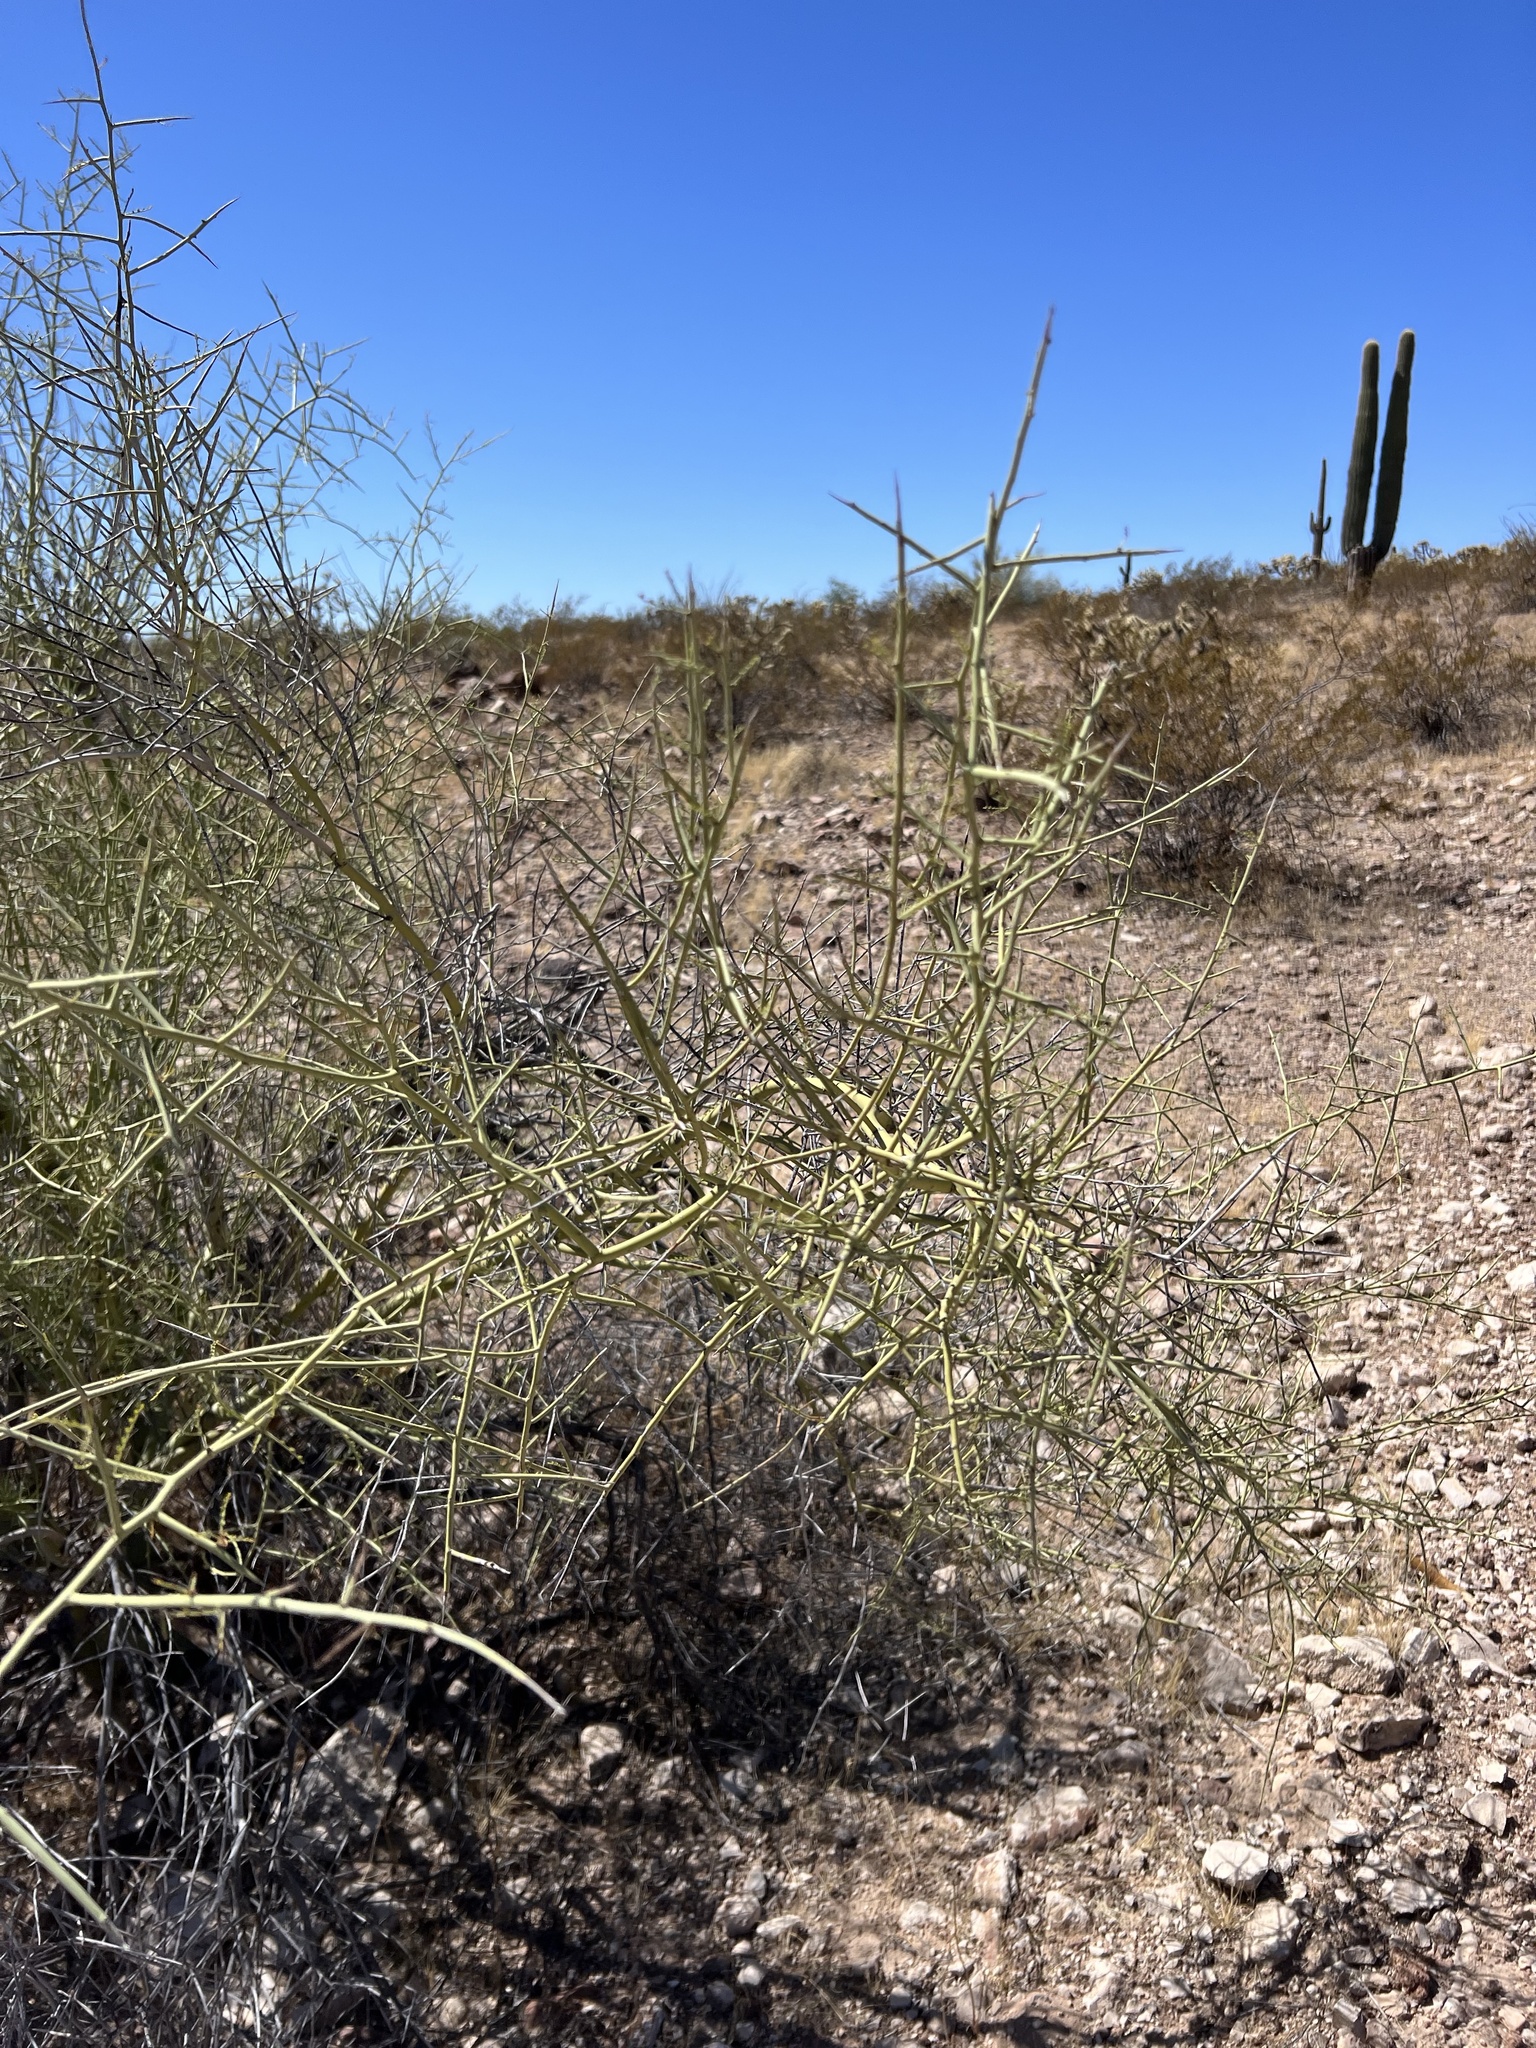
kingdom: Plantae
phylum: Tracheophyta
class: Magnoliopsida
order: Fabales
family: Fabaceae
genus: Parkinsonia
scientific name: Parkinsonia microphylla
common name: Yellow paloverde
